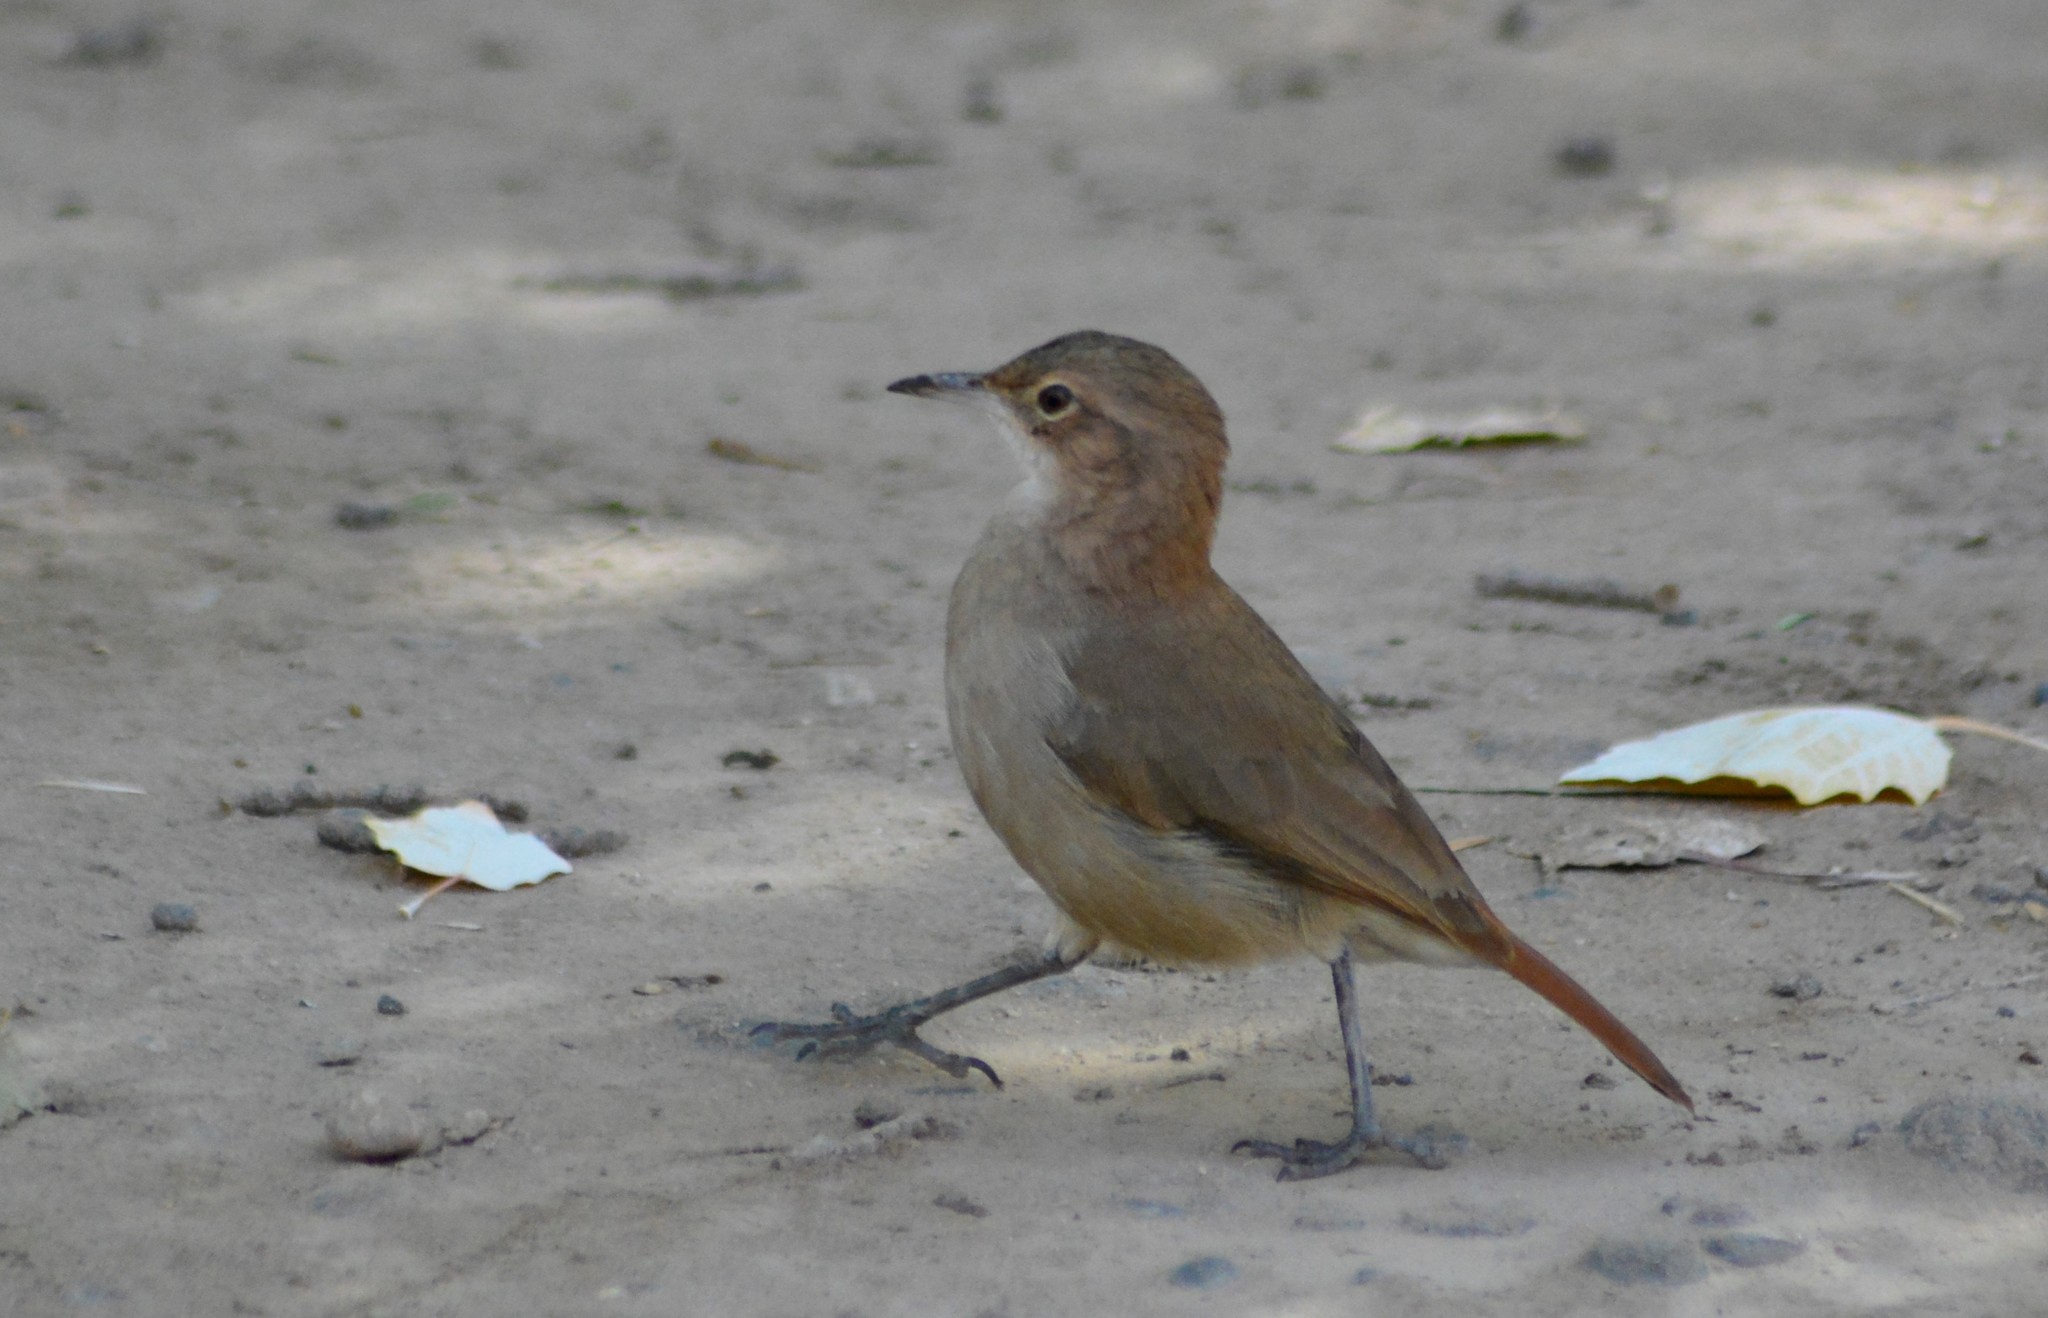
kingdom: Animalia
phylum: Chordata
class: Aves
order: Passeriformes
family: Furnariidae
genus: Furnarius
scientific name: Furnarius rufus
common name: Rufous hornero
